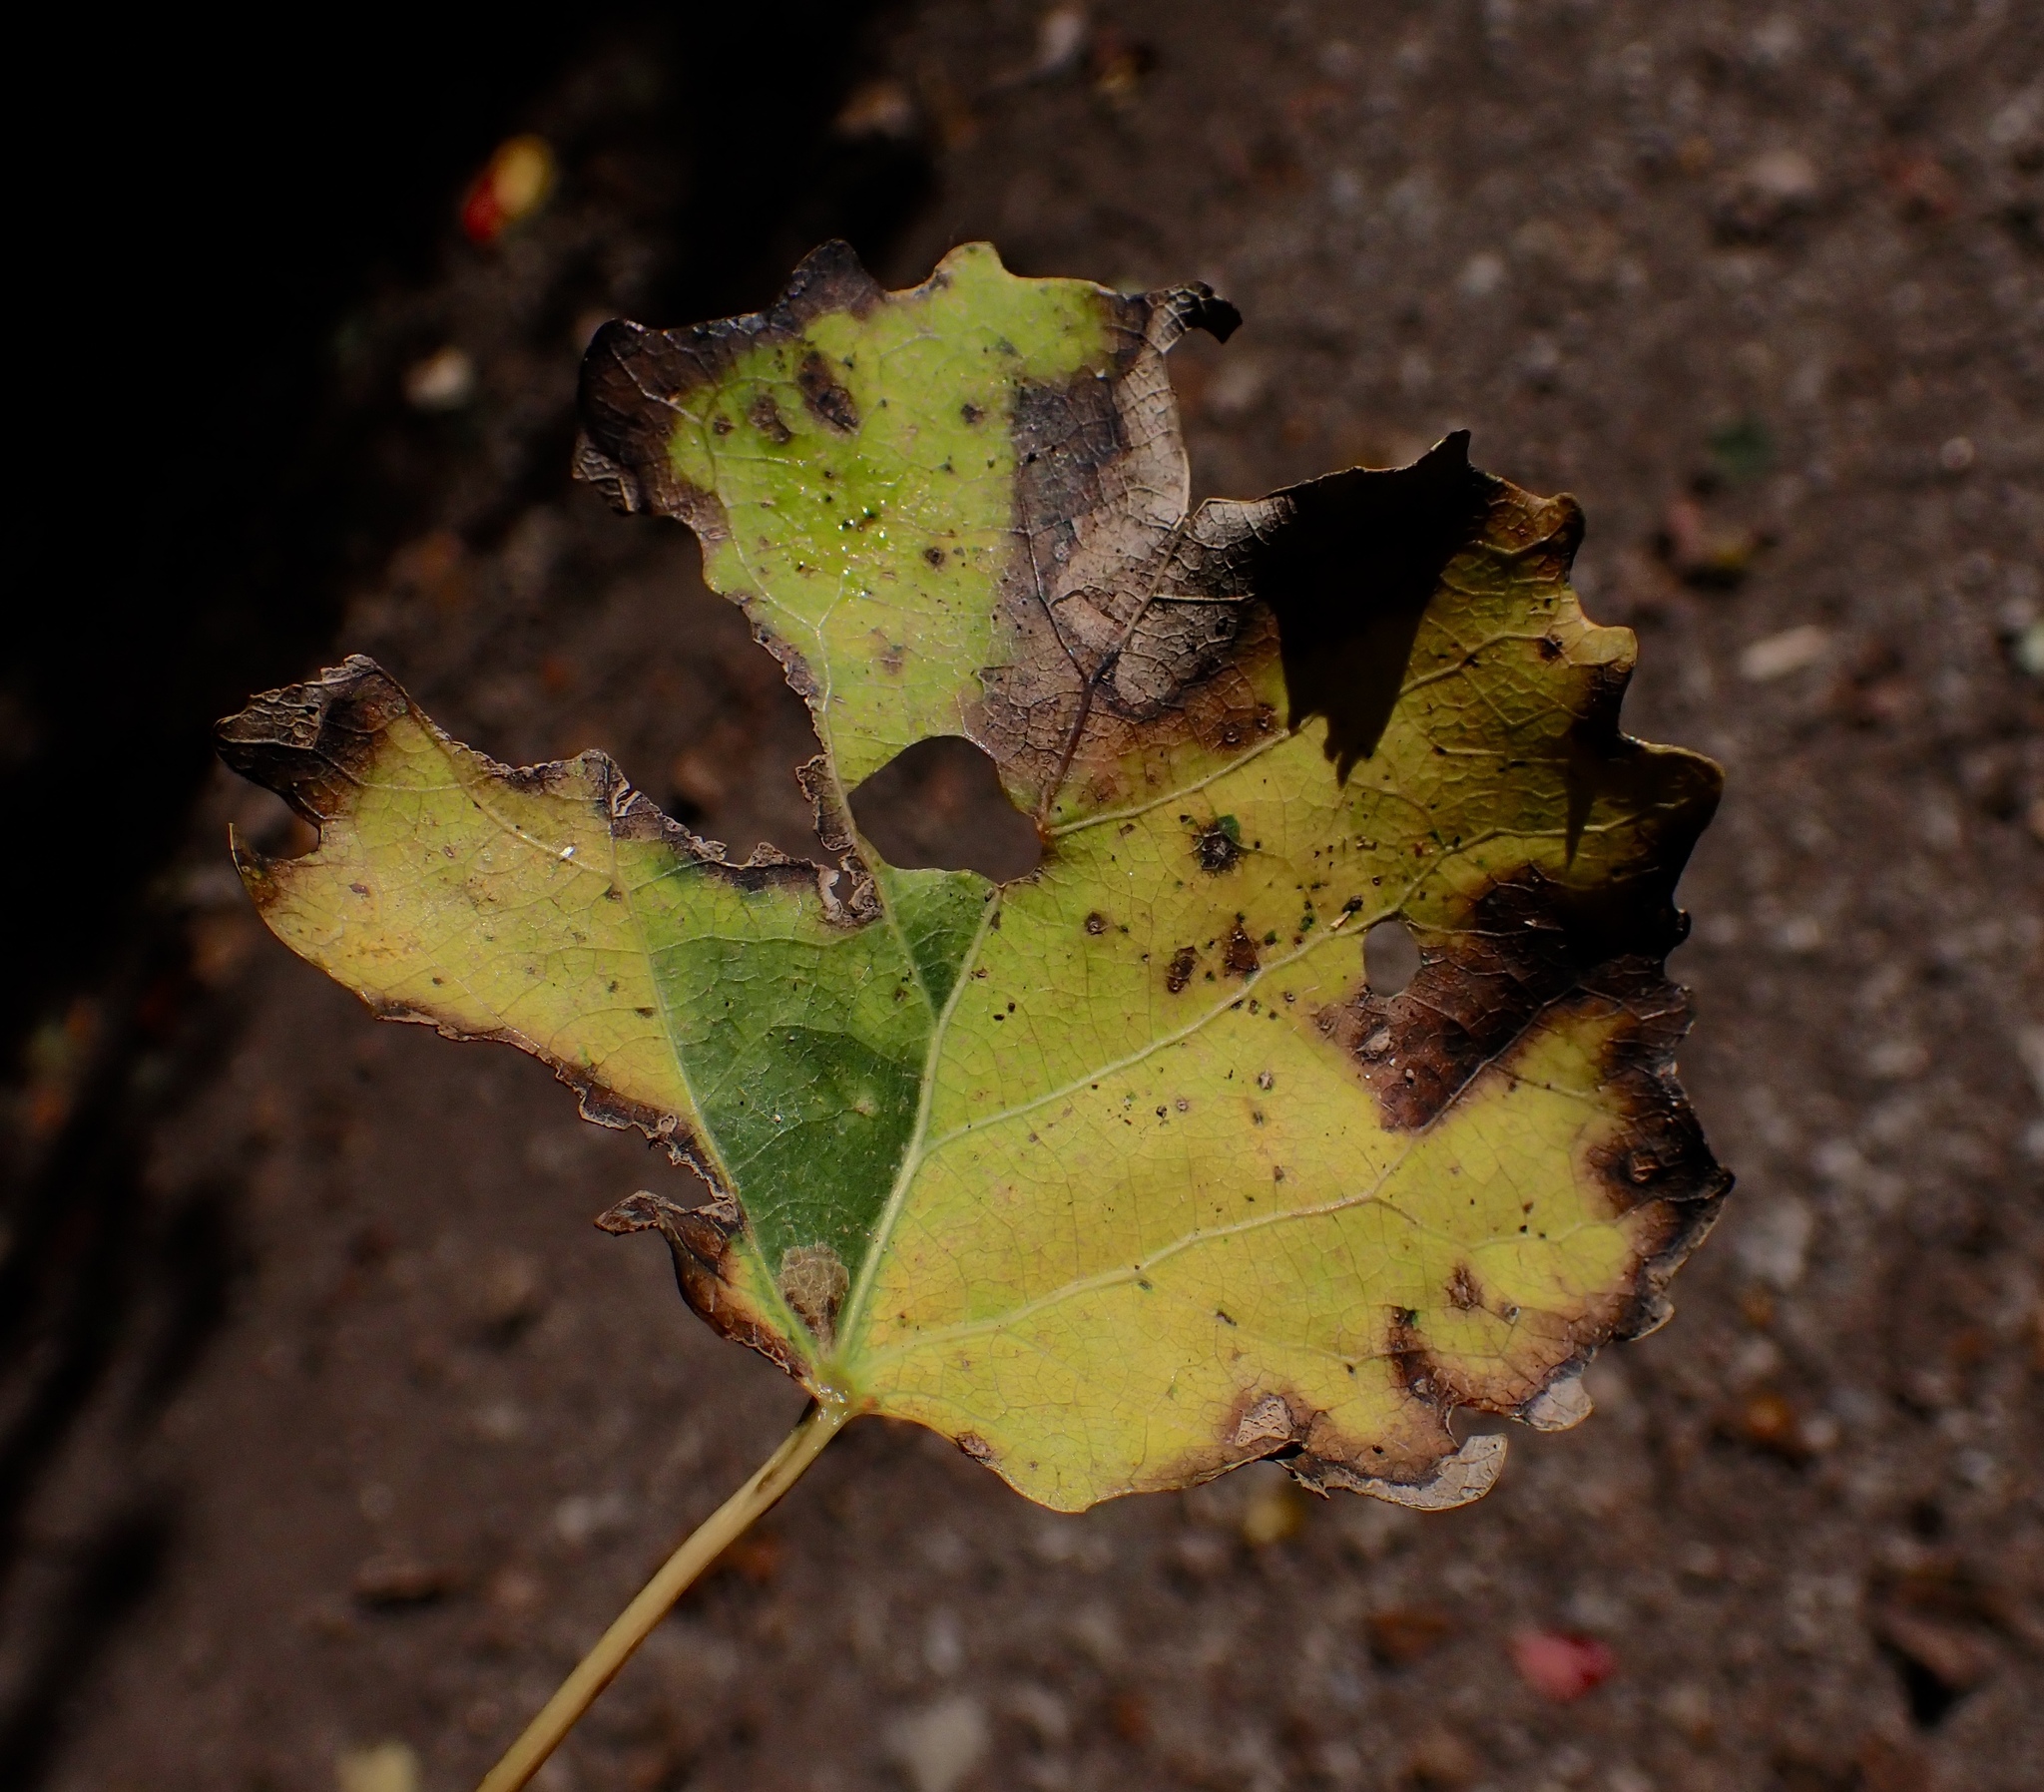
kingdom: Animalia
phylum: Arthropoda
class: Insecta
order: Lepidoptera
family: Nepticulidae
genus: Ectoedemia
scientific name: Ectoedemia argyropeza
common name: Virgin pigmy
